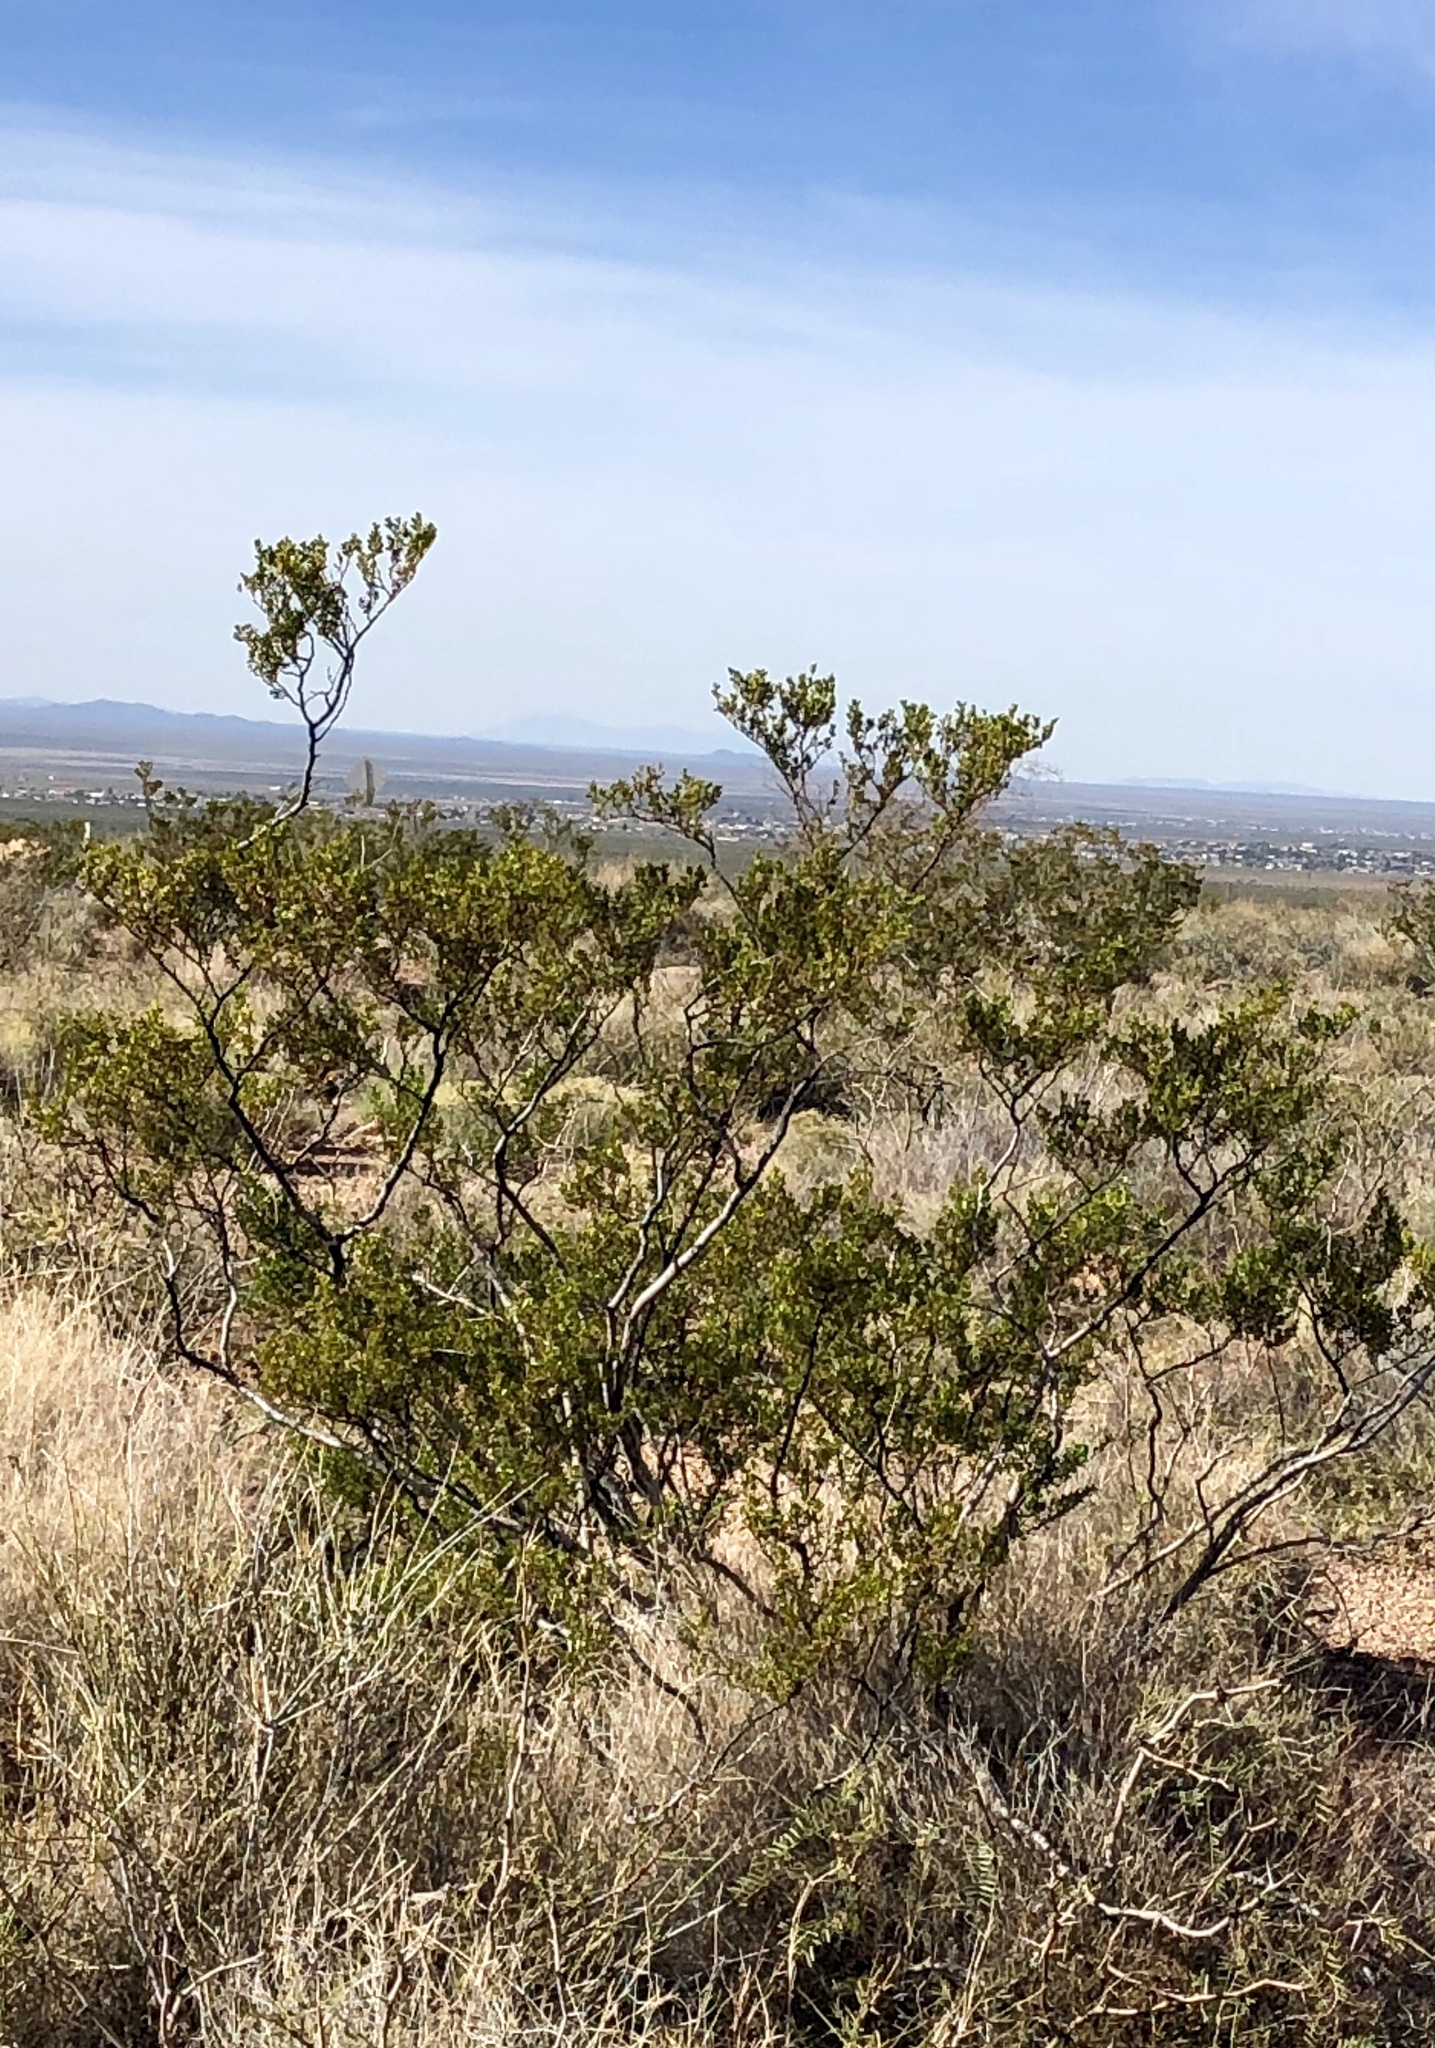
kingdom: Plantae
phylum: Tracheophyta
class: Magnoliopsida
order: Zygophyllales
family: Zygophyllaceae
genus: Larrea
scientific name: Larrea tridentata
